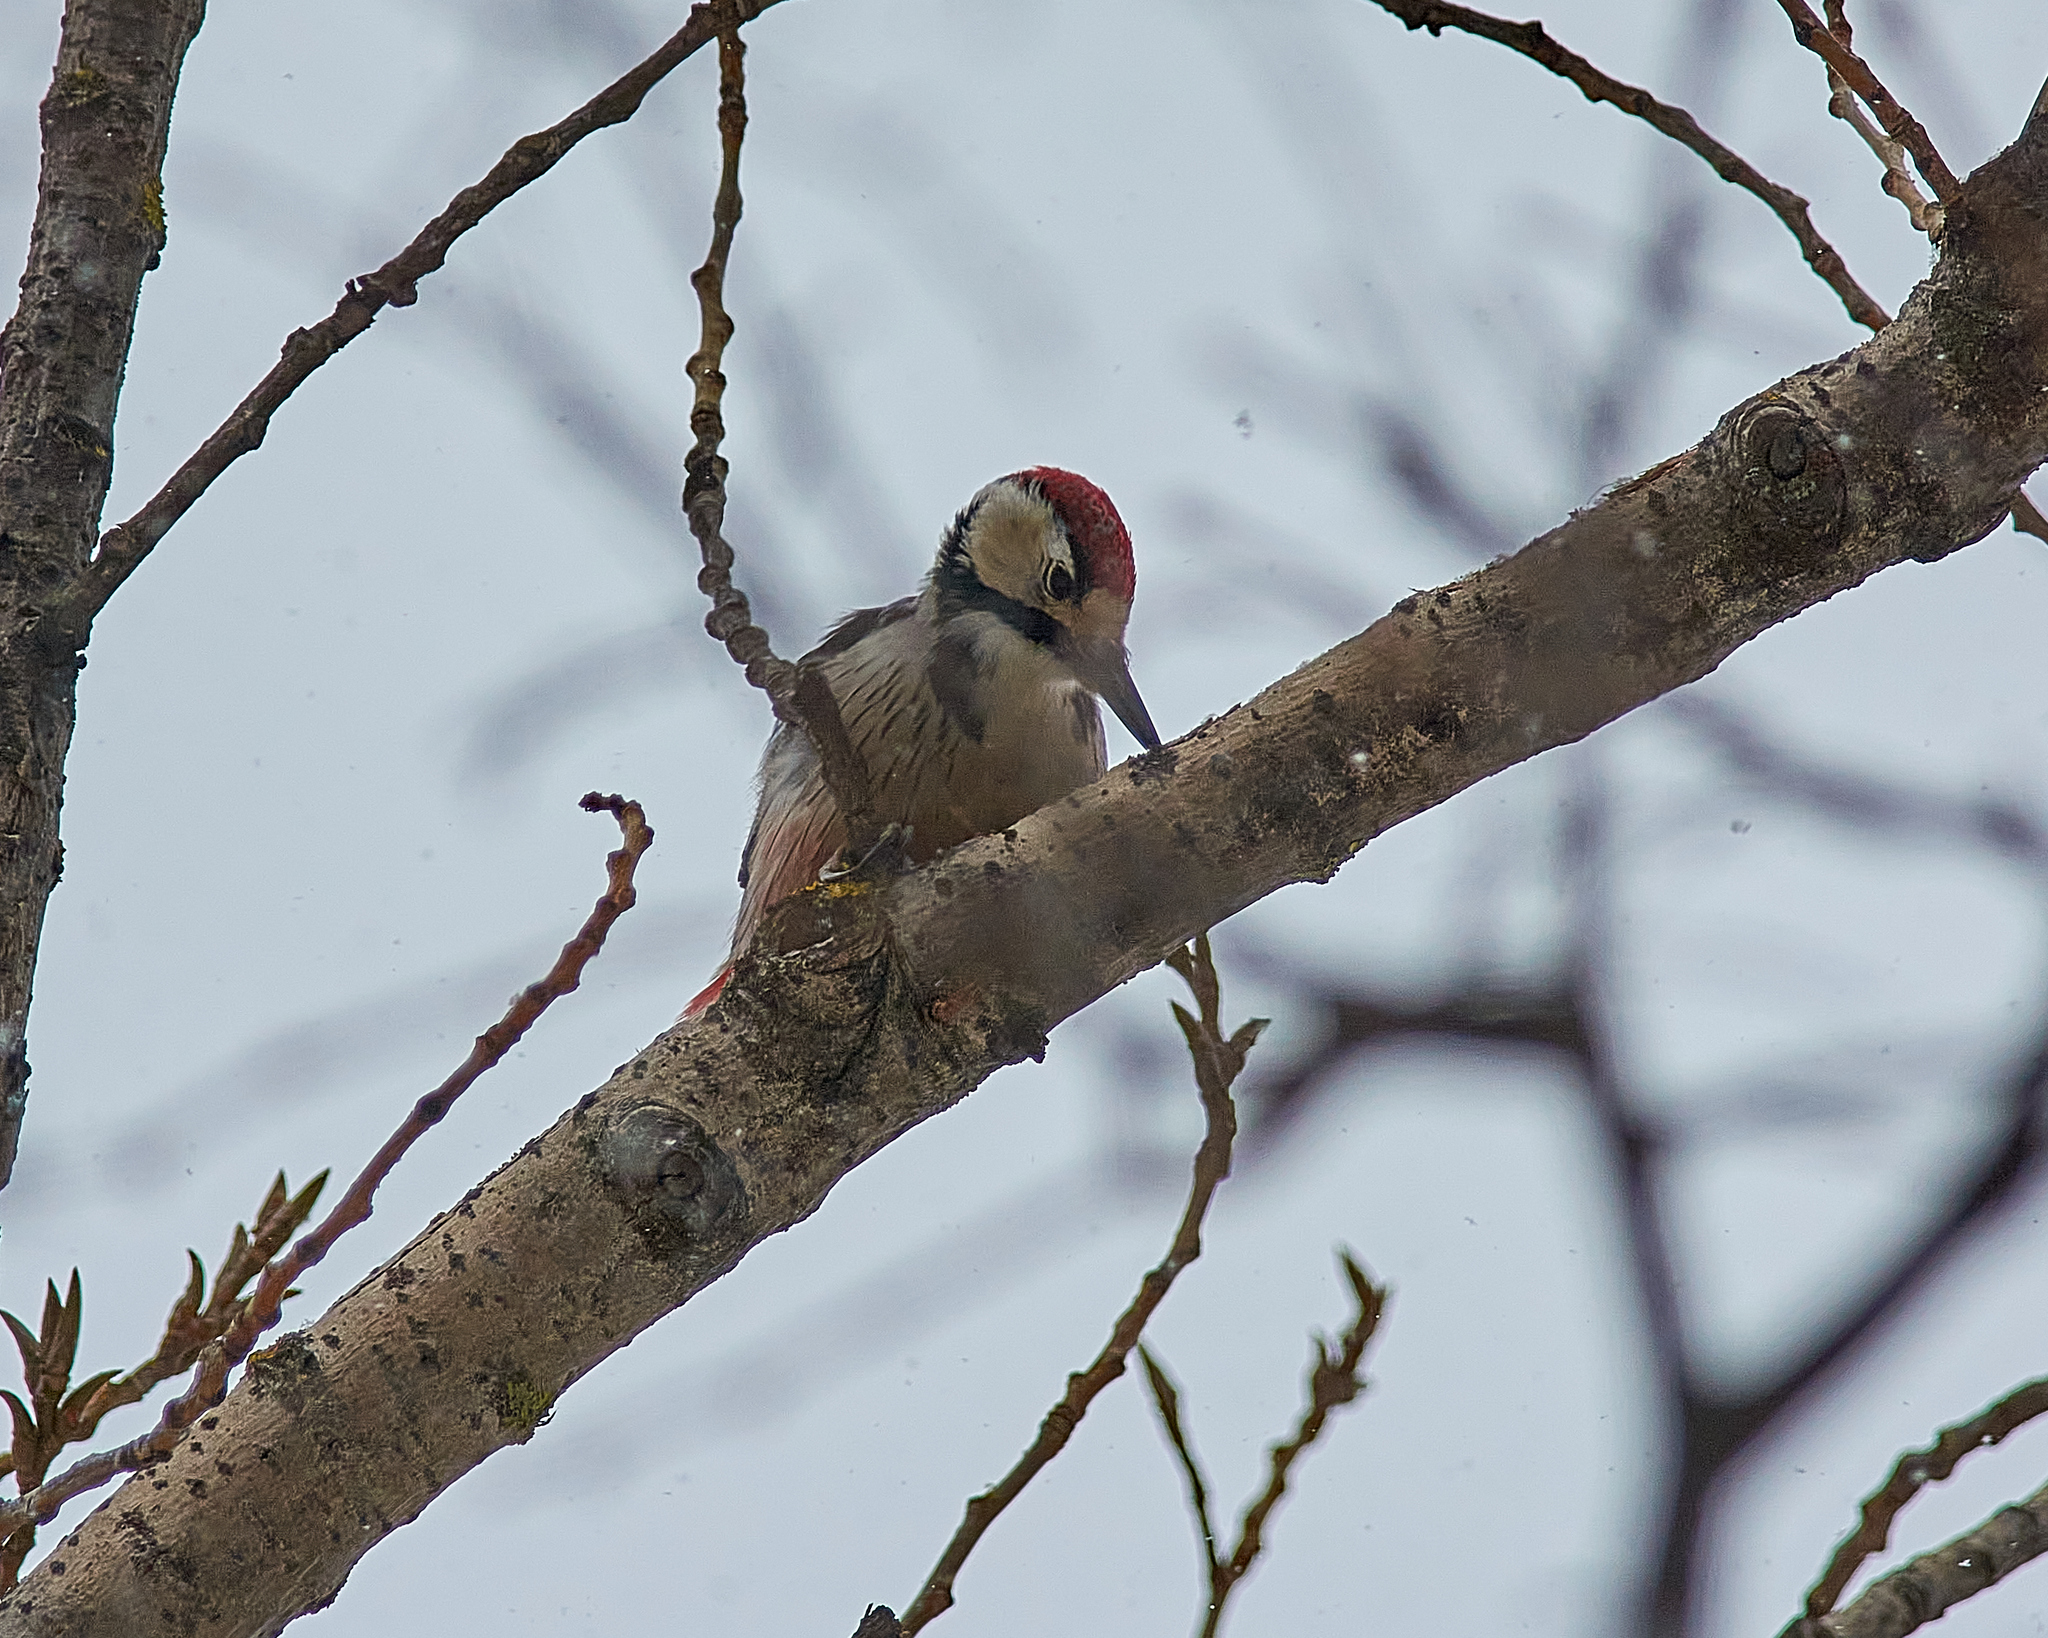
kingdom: Animalia
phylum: Chordata
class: Aves
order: Piciformes
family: Picidae
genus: Dendrocopos
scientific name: Dendrocopos leucotos
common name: White-backed woodpecker
